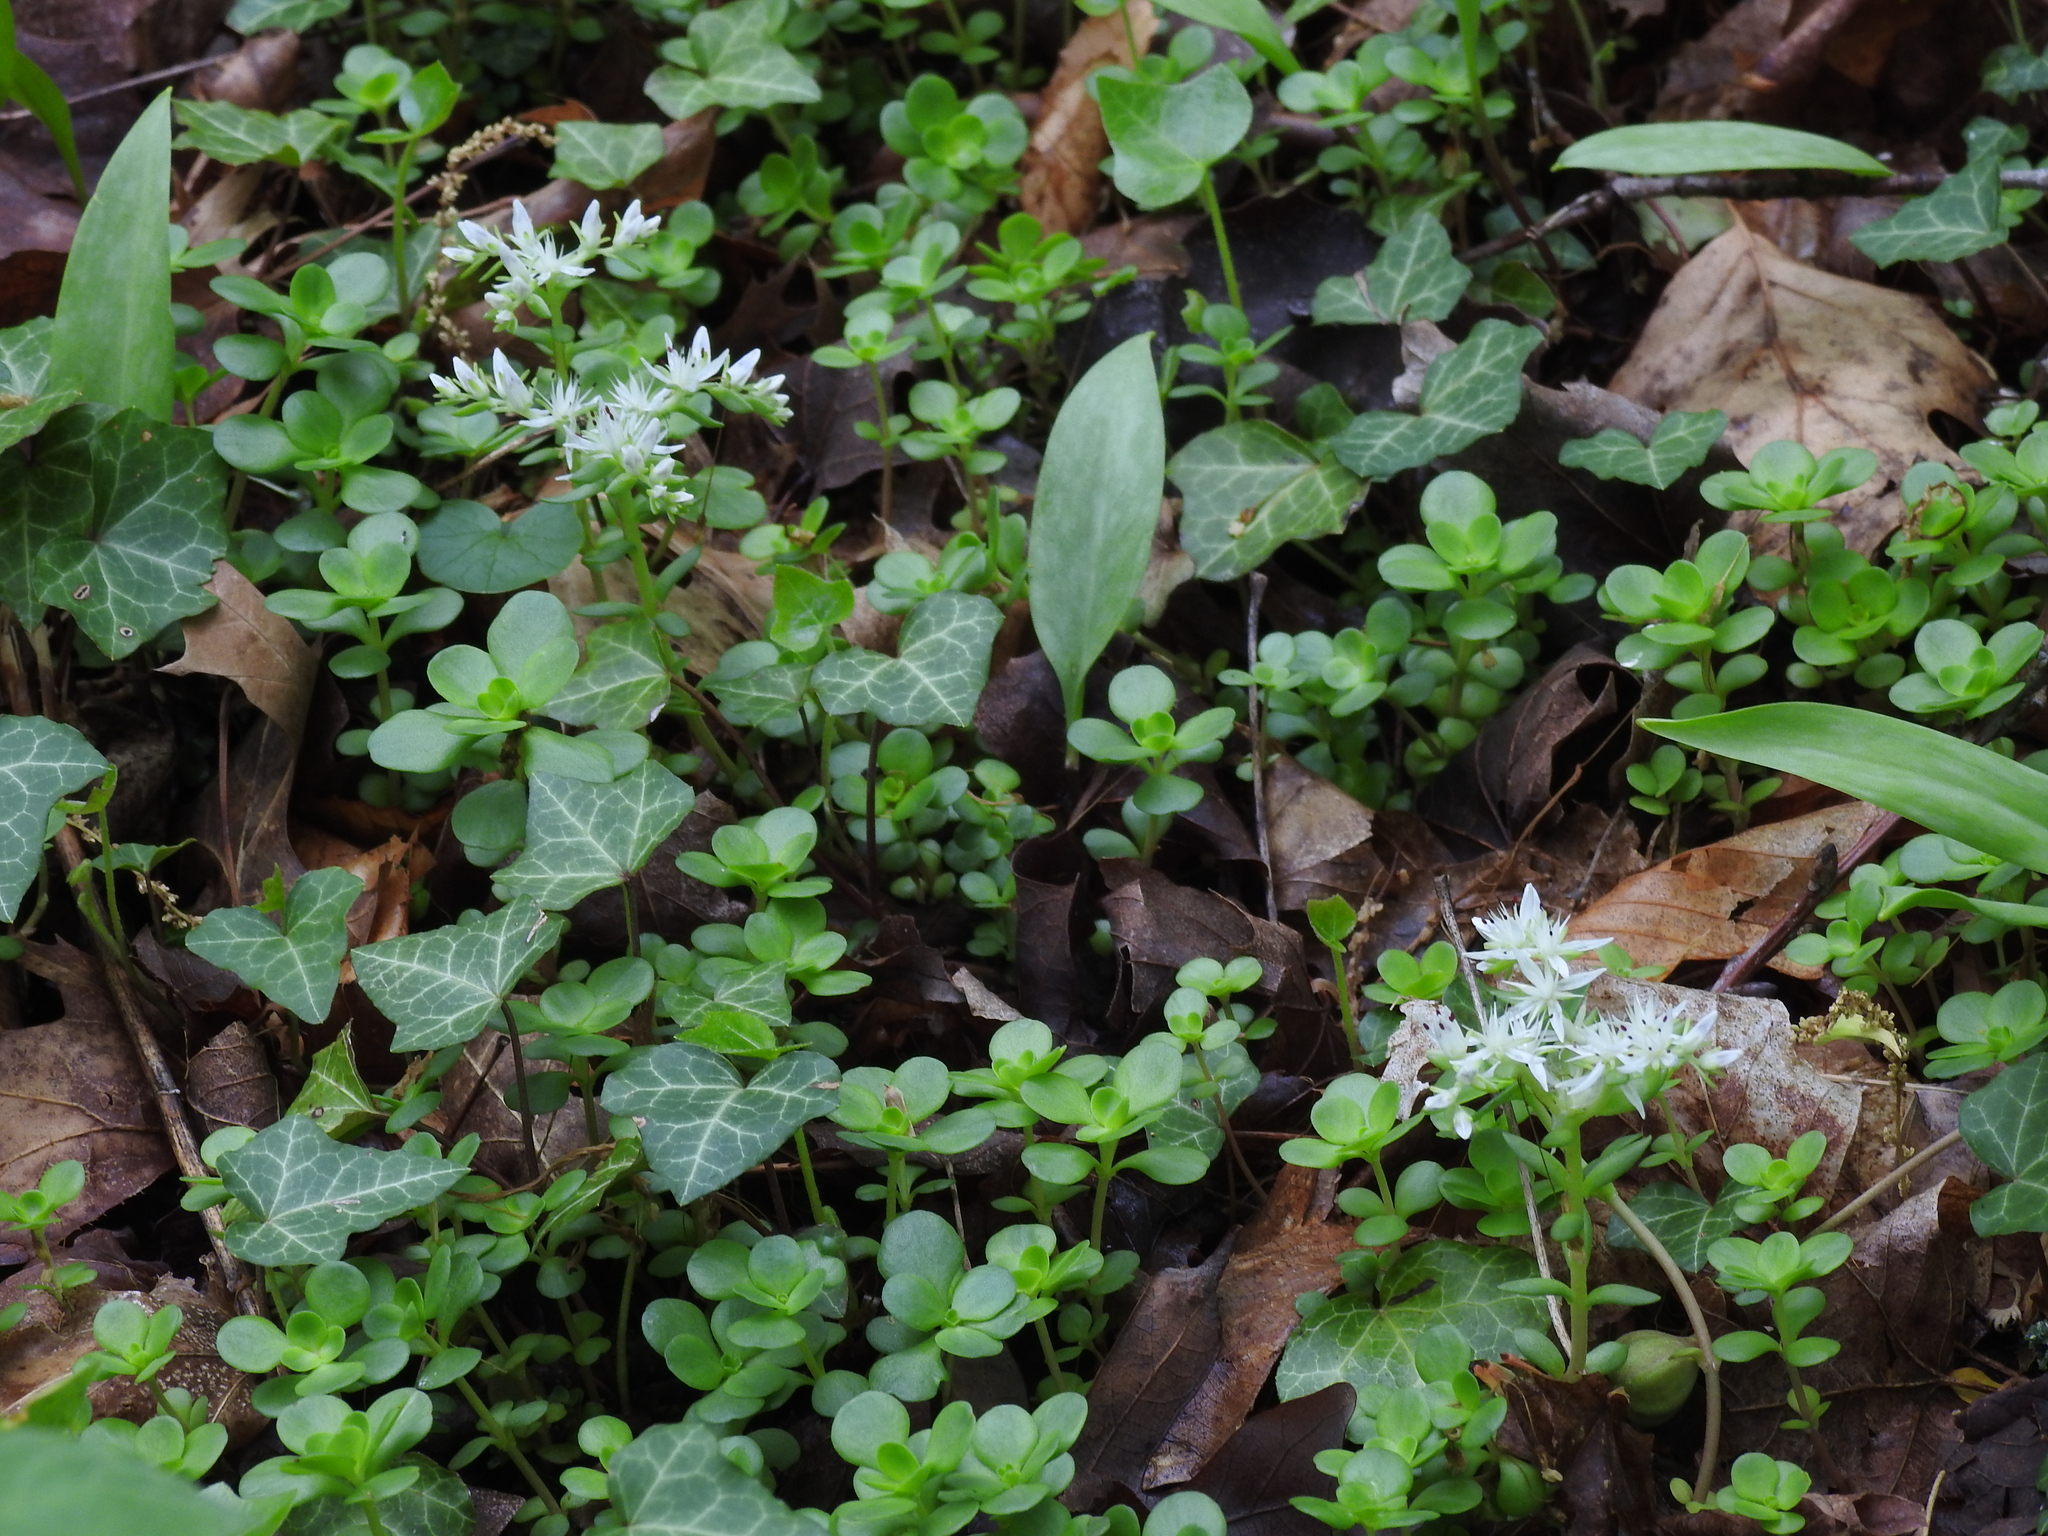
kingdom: Plantae
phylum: Tracheophyta
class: Magnoliopsida
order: Saxifragales
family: Crassulaceae
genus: Sedum
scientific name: Sedum ternatum
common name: Wild stonecrop
